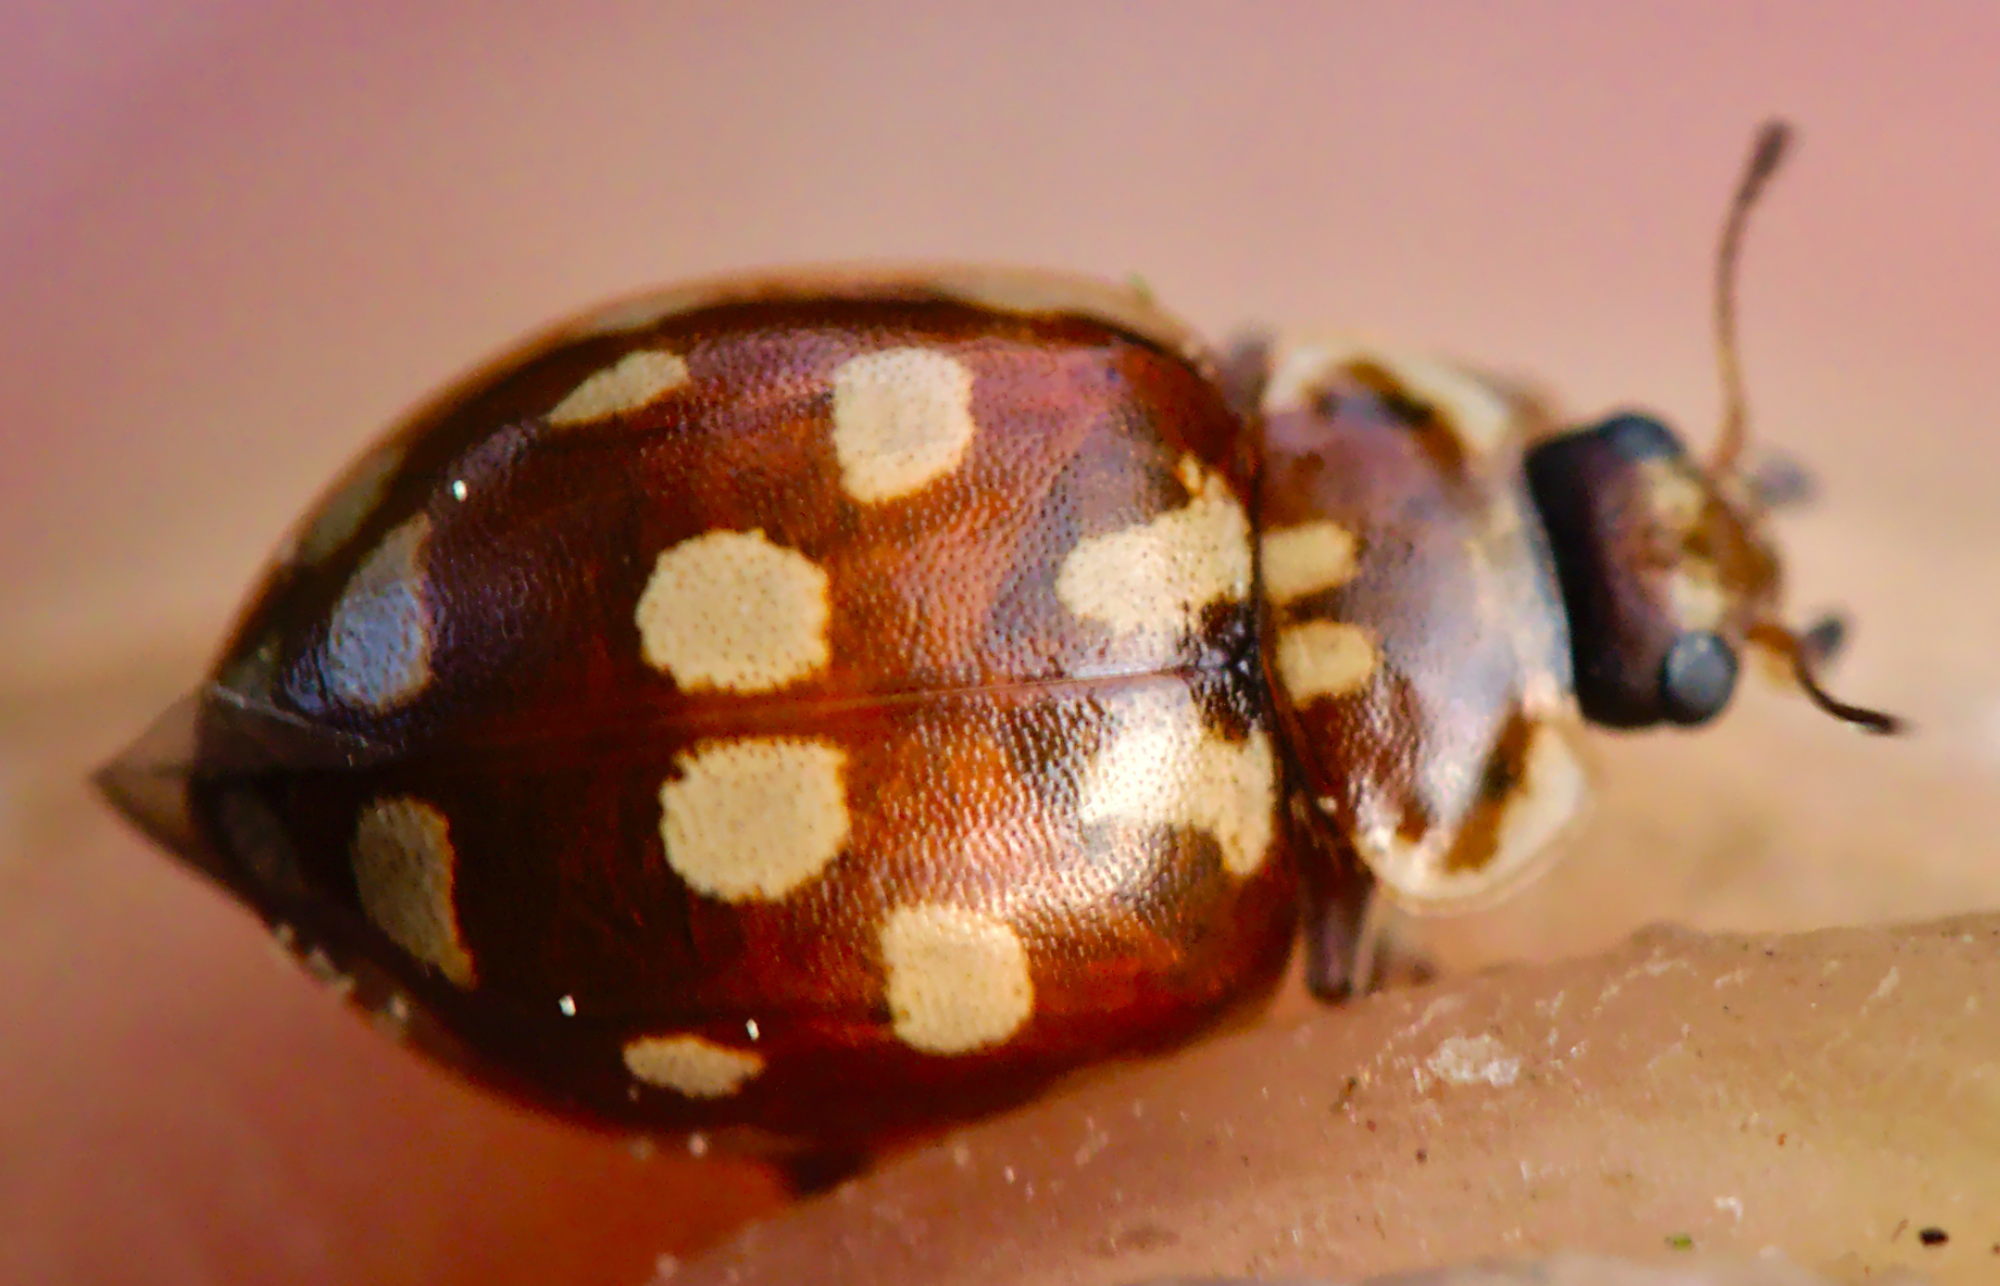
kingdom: Animalia
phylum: Arthropoda
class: Insecta
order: Coleoptera
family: Coccinellidae
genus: Myrrha
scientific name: Myrrha octodecimguttata
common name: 18-spot ladybird
